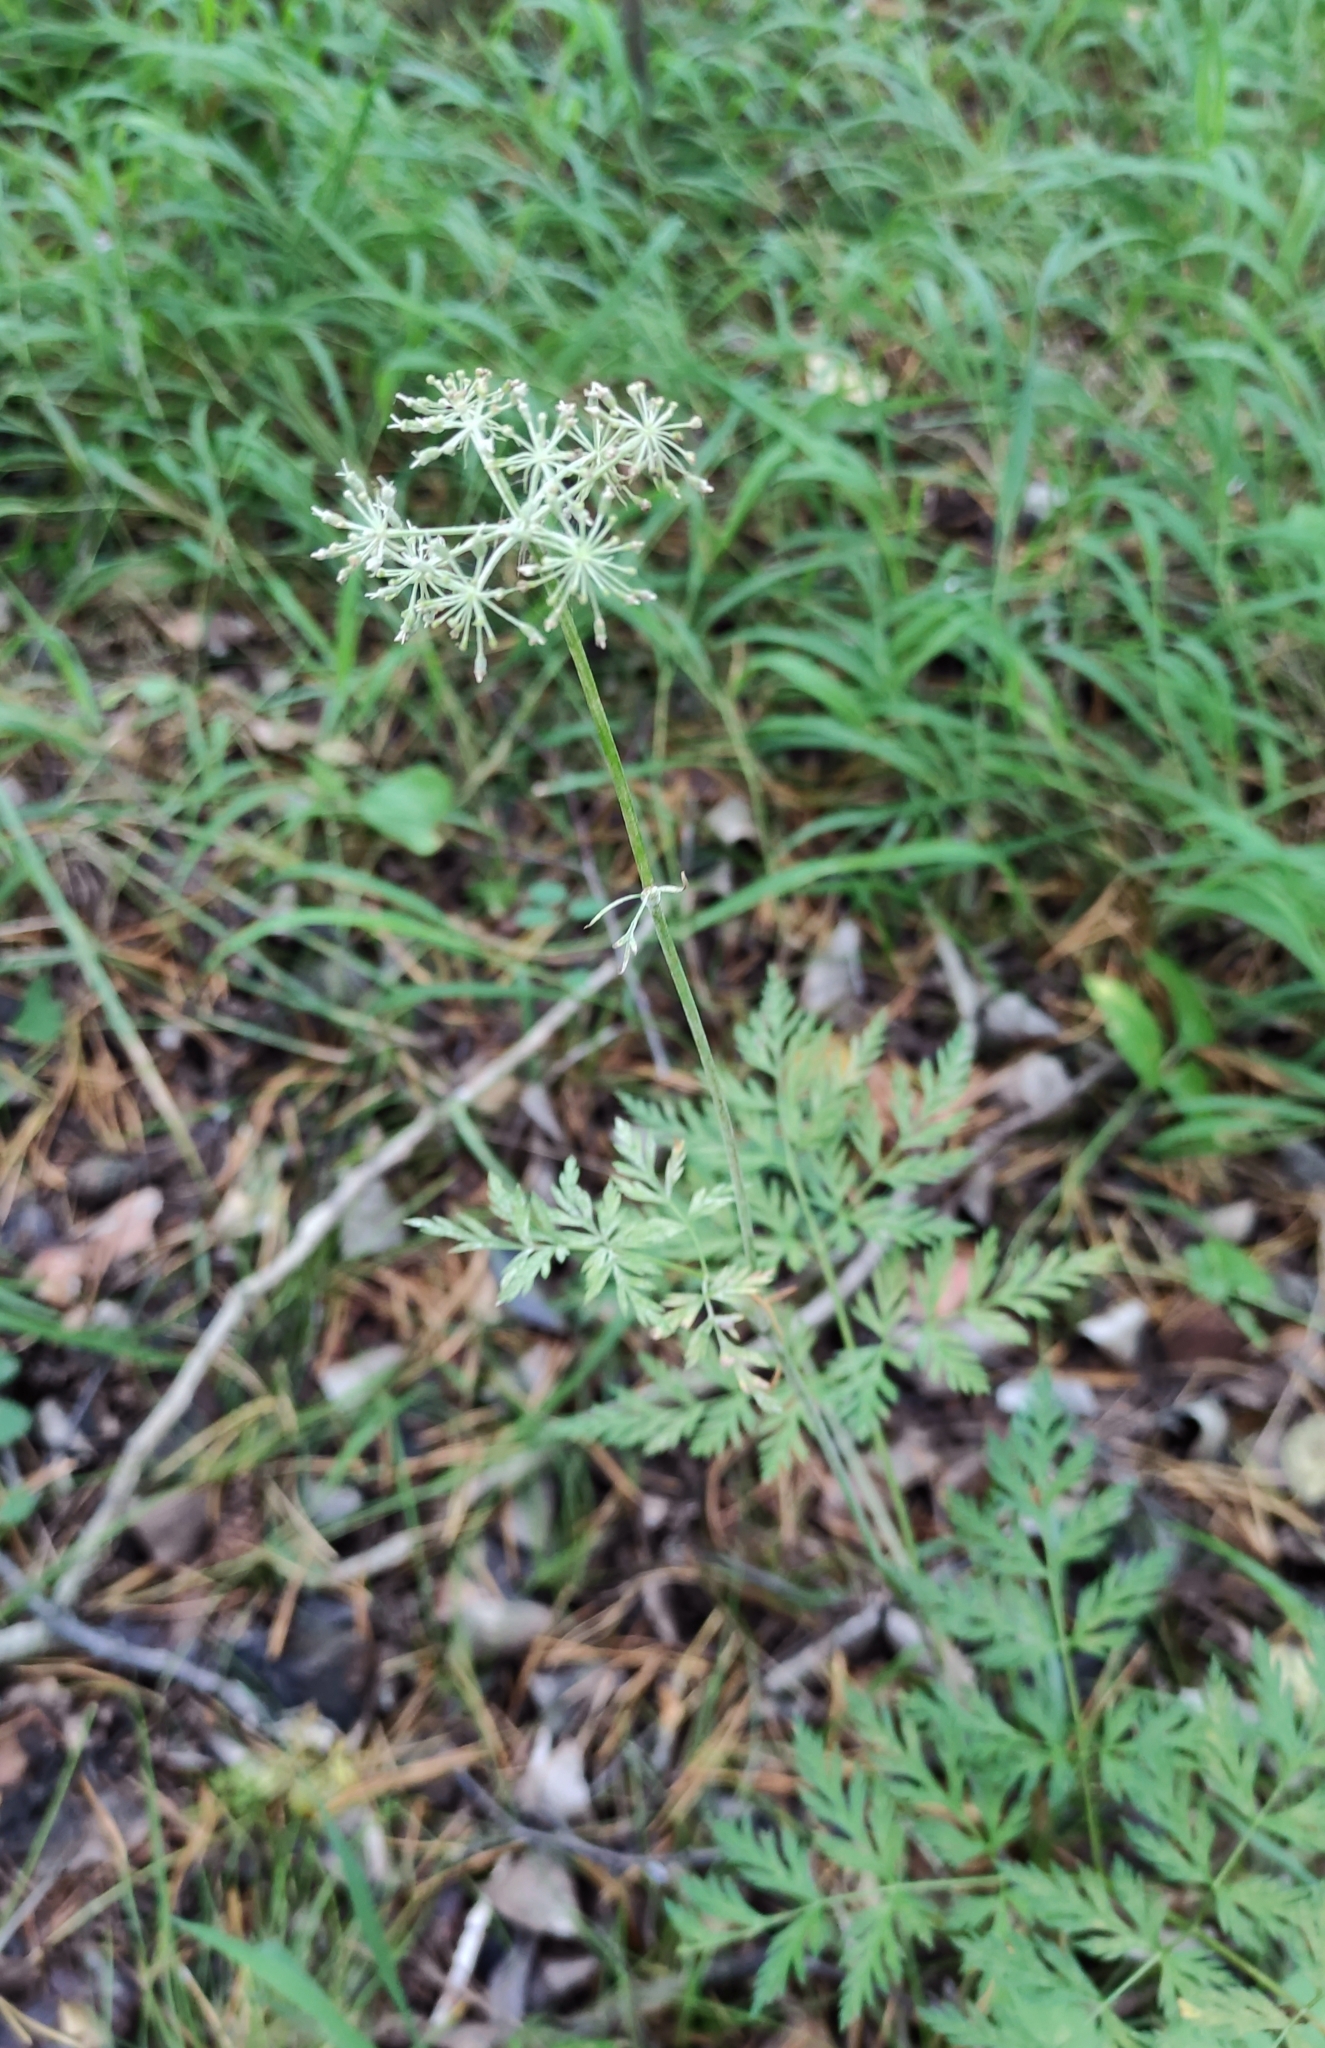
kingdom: Plantae
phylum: Tracheophyta
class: Magnoliopsida
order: Apiales
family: Apiaceae
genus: Aegopodium
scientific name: Aegopodium alpestre
